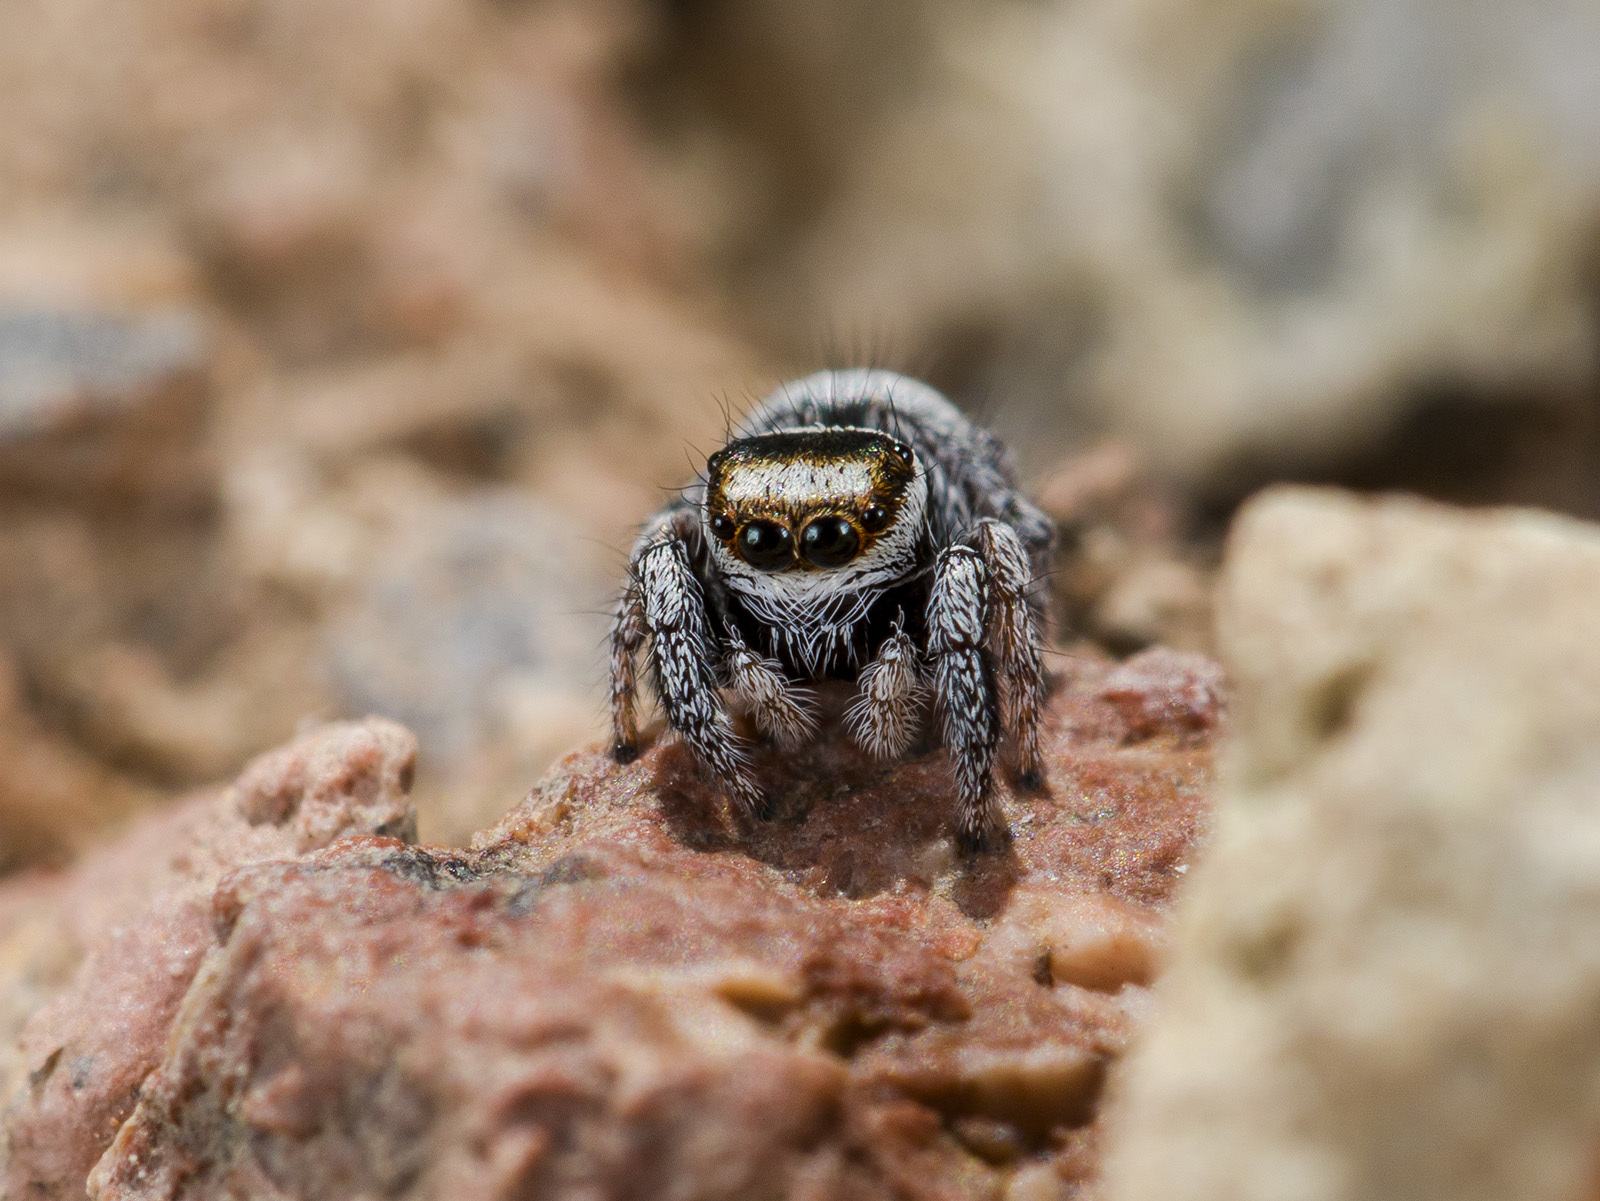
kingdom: Animalia
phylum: Arthropoda
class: Arachnida
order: Araneae
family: Salticidae
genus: Pellenes
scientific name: Pellenes geniculatus
